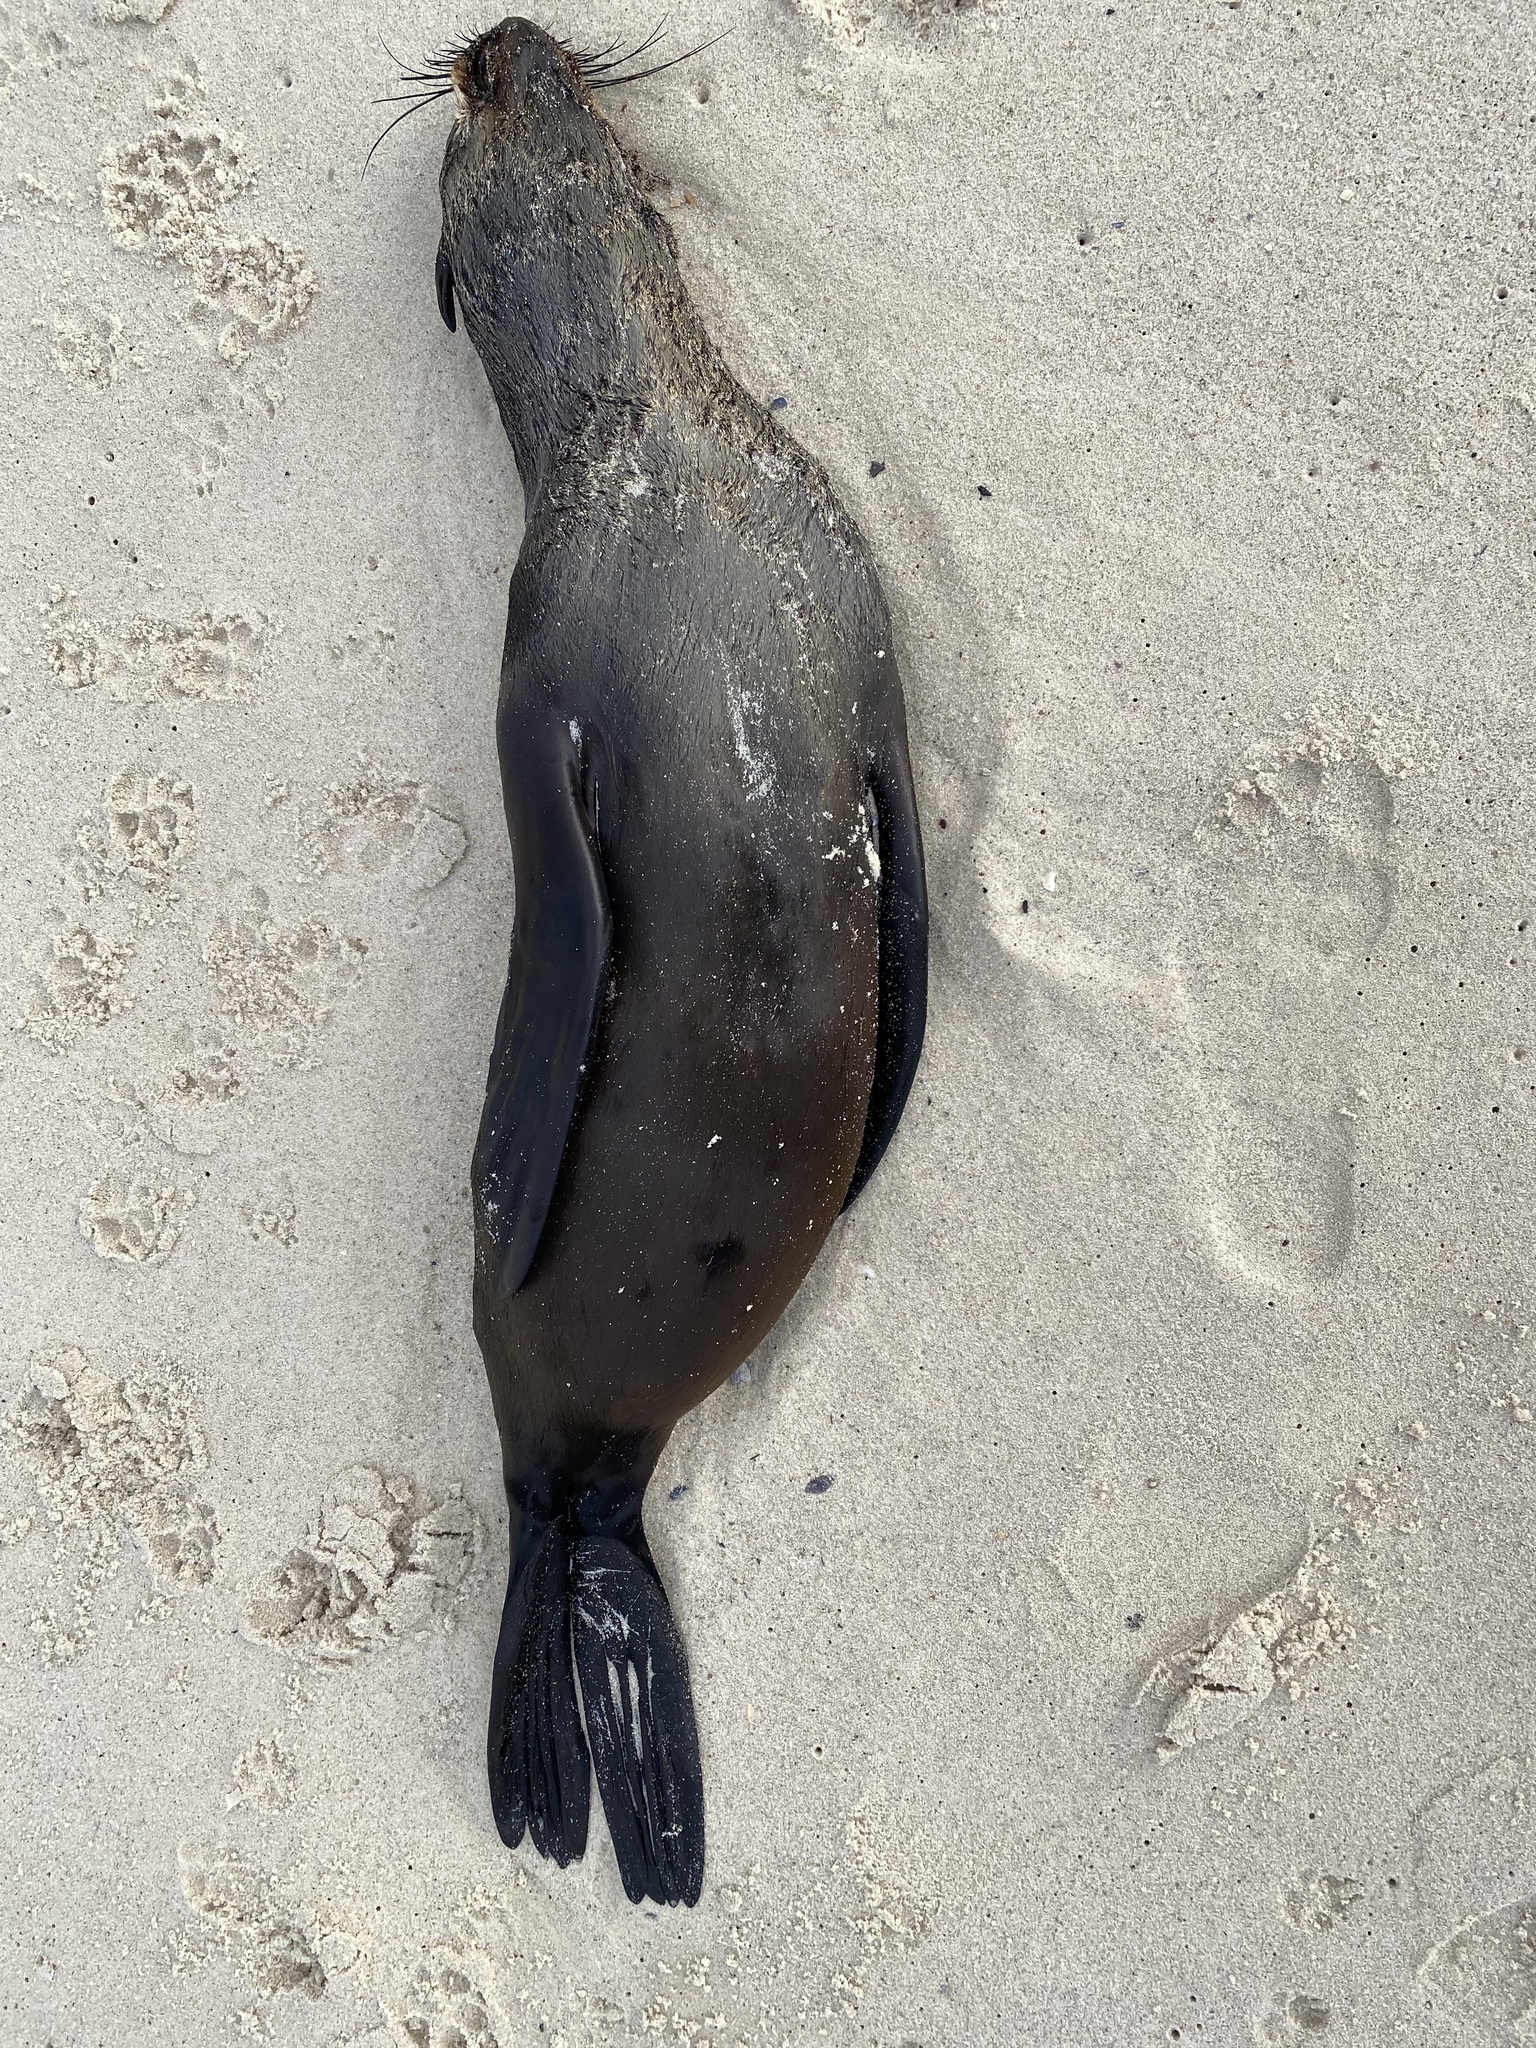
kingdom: Animalia
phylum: Chordata
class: Mammalia
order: Carnivora
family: Otariidae
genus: Arctocephalus
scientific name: Arctocephalus pusillus
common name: Brown fur seal
